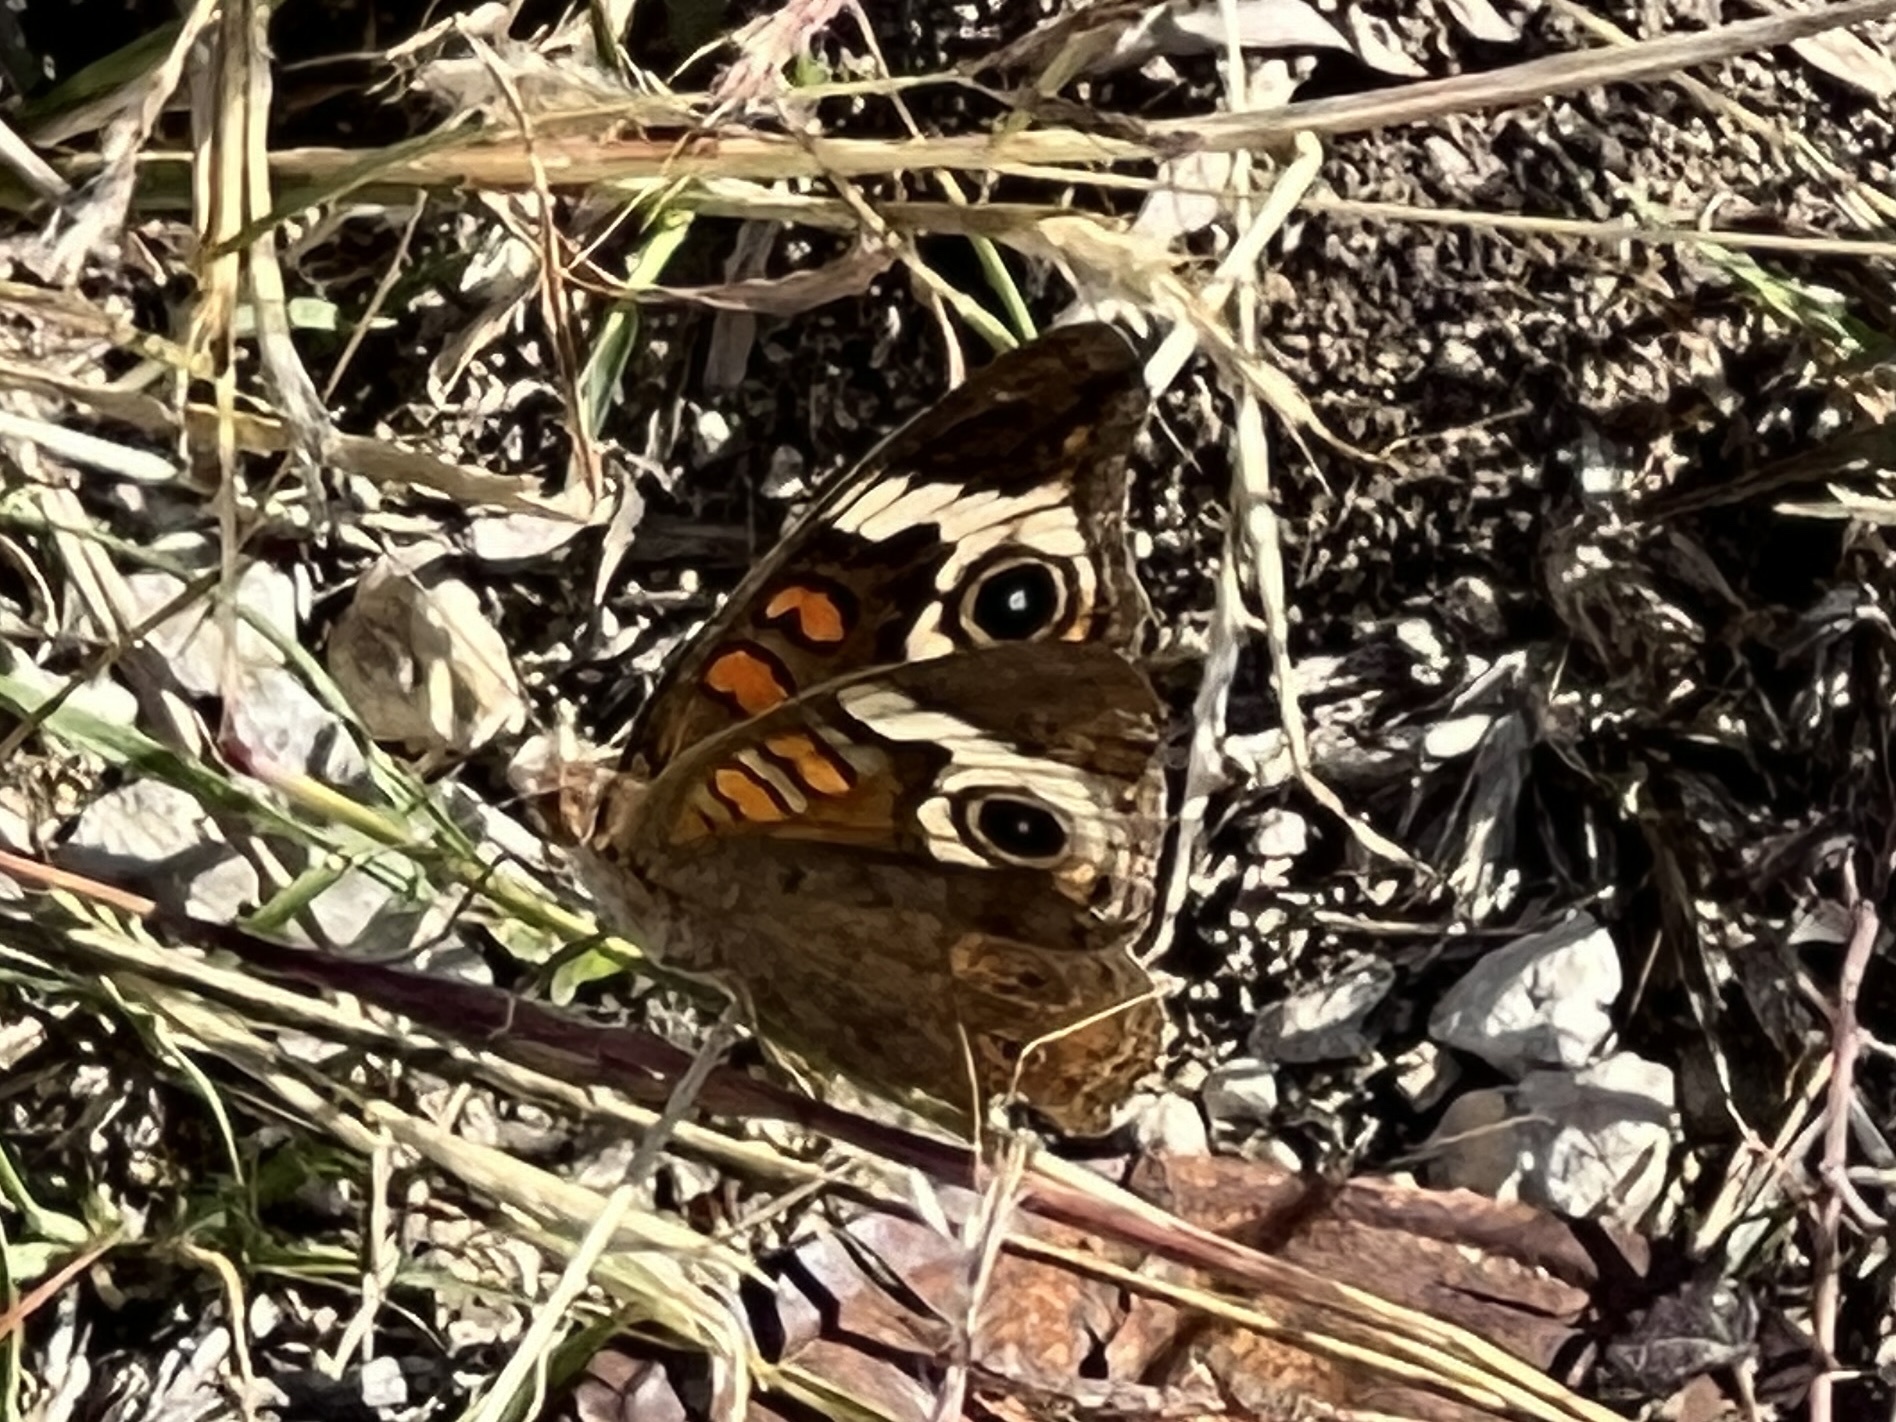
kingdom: Animalia
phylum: Arthropoda
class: Insecta
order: Lepidoptera
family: Nymphalidae
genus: Junonia
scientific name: Junonia coenia
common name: Common buckeye
